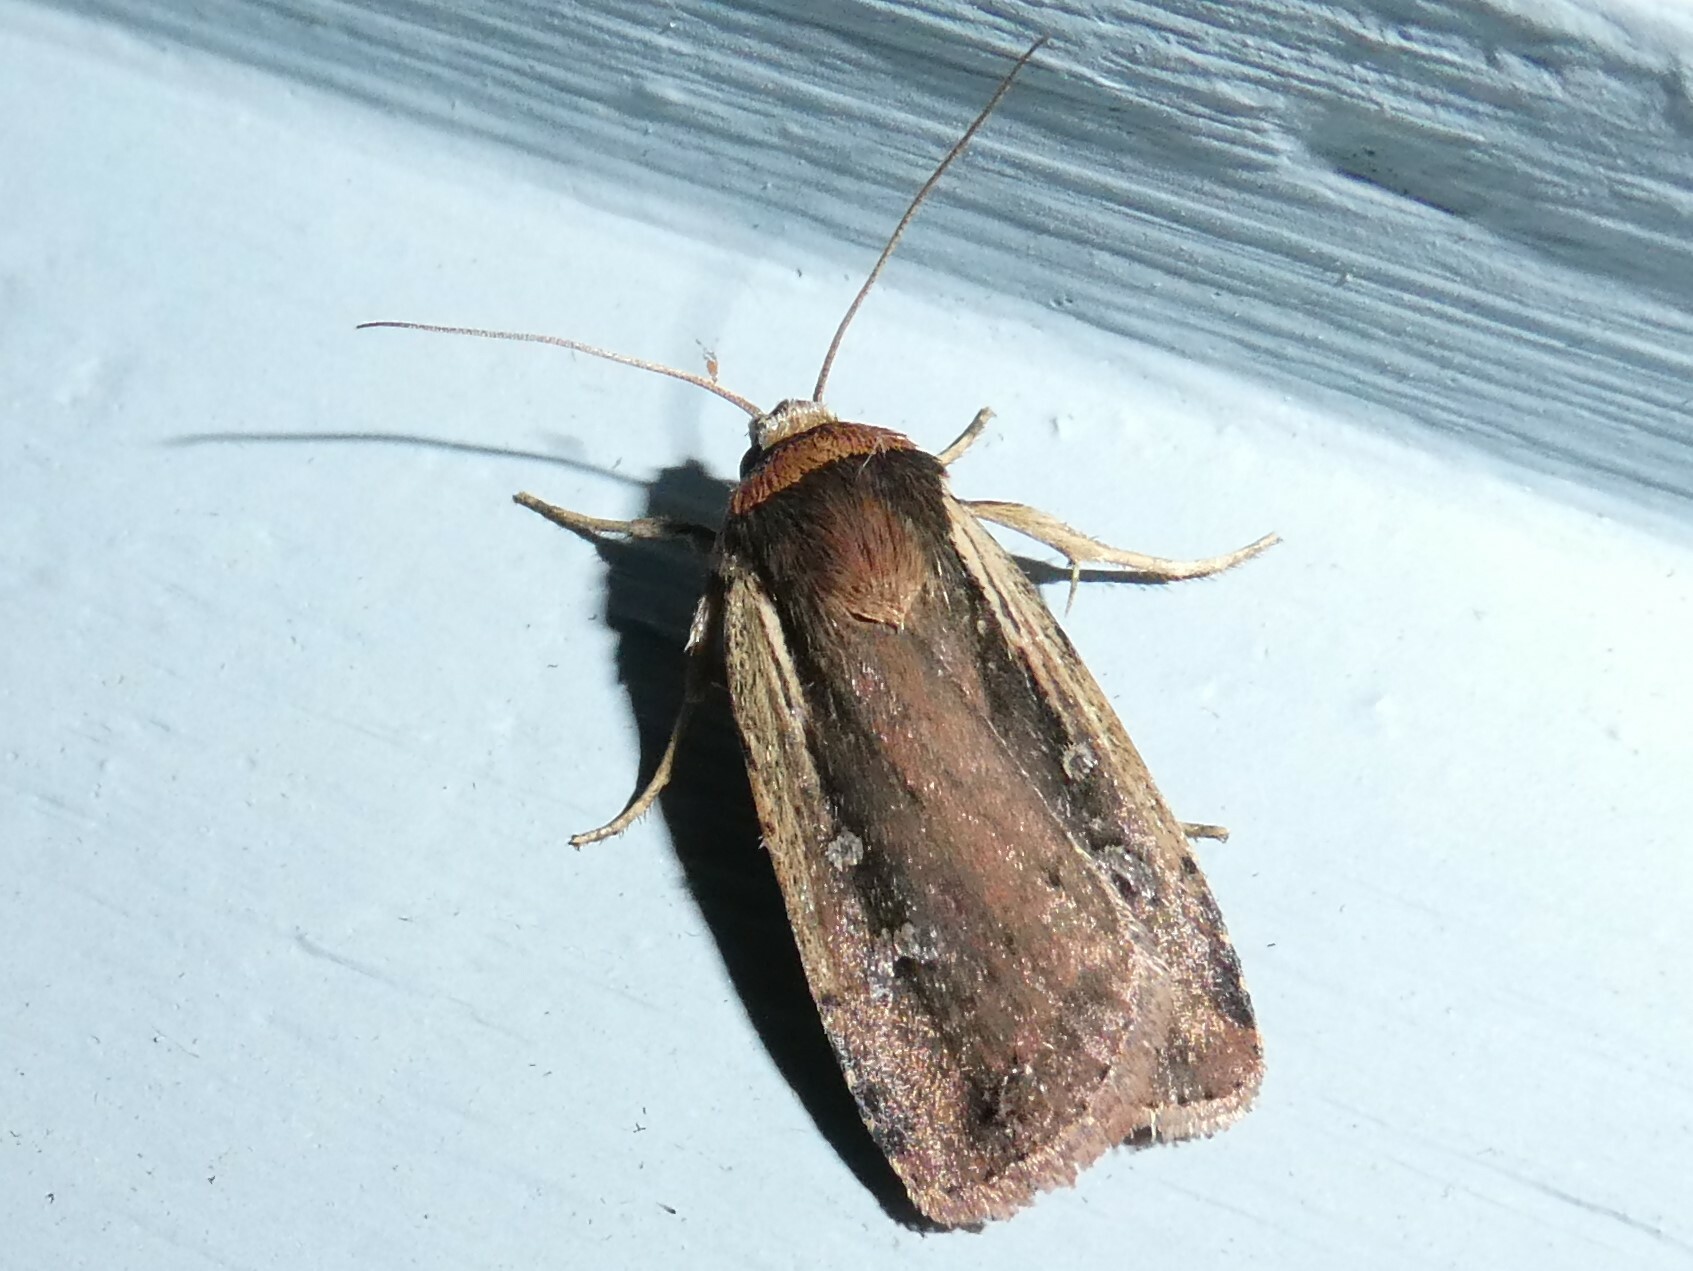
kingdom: Animalia
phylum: Arthropoda
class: Insecta
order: Lepidoptera
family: Noctuidae
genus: Ochropleura
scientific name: Ochropleura implecta
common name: Flame-shouldered dart
